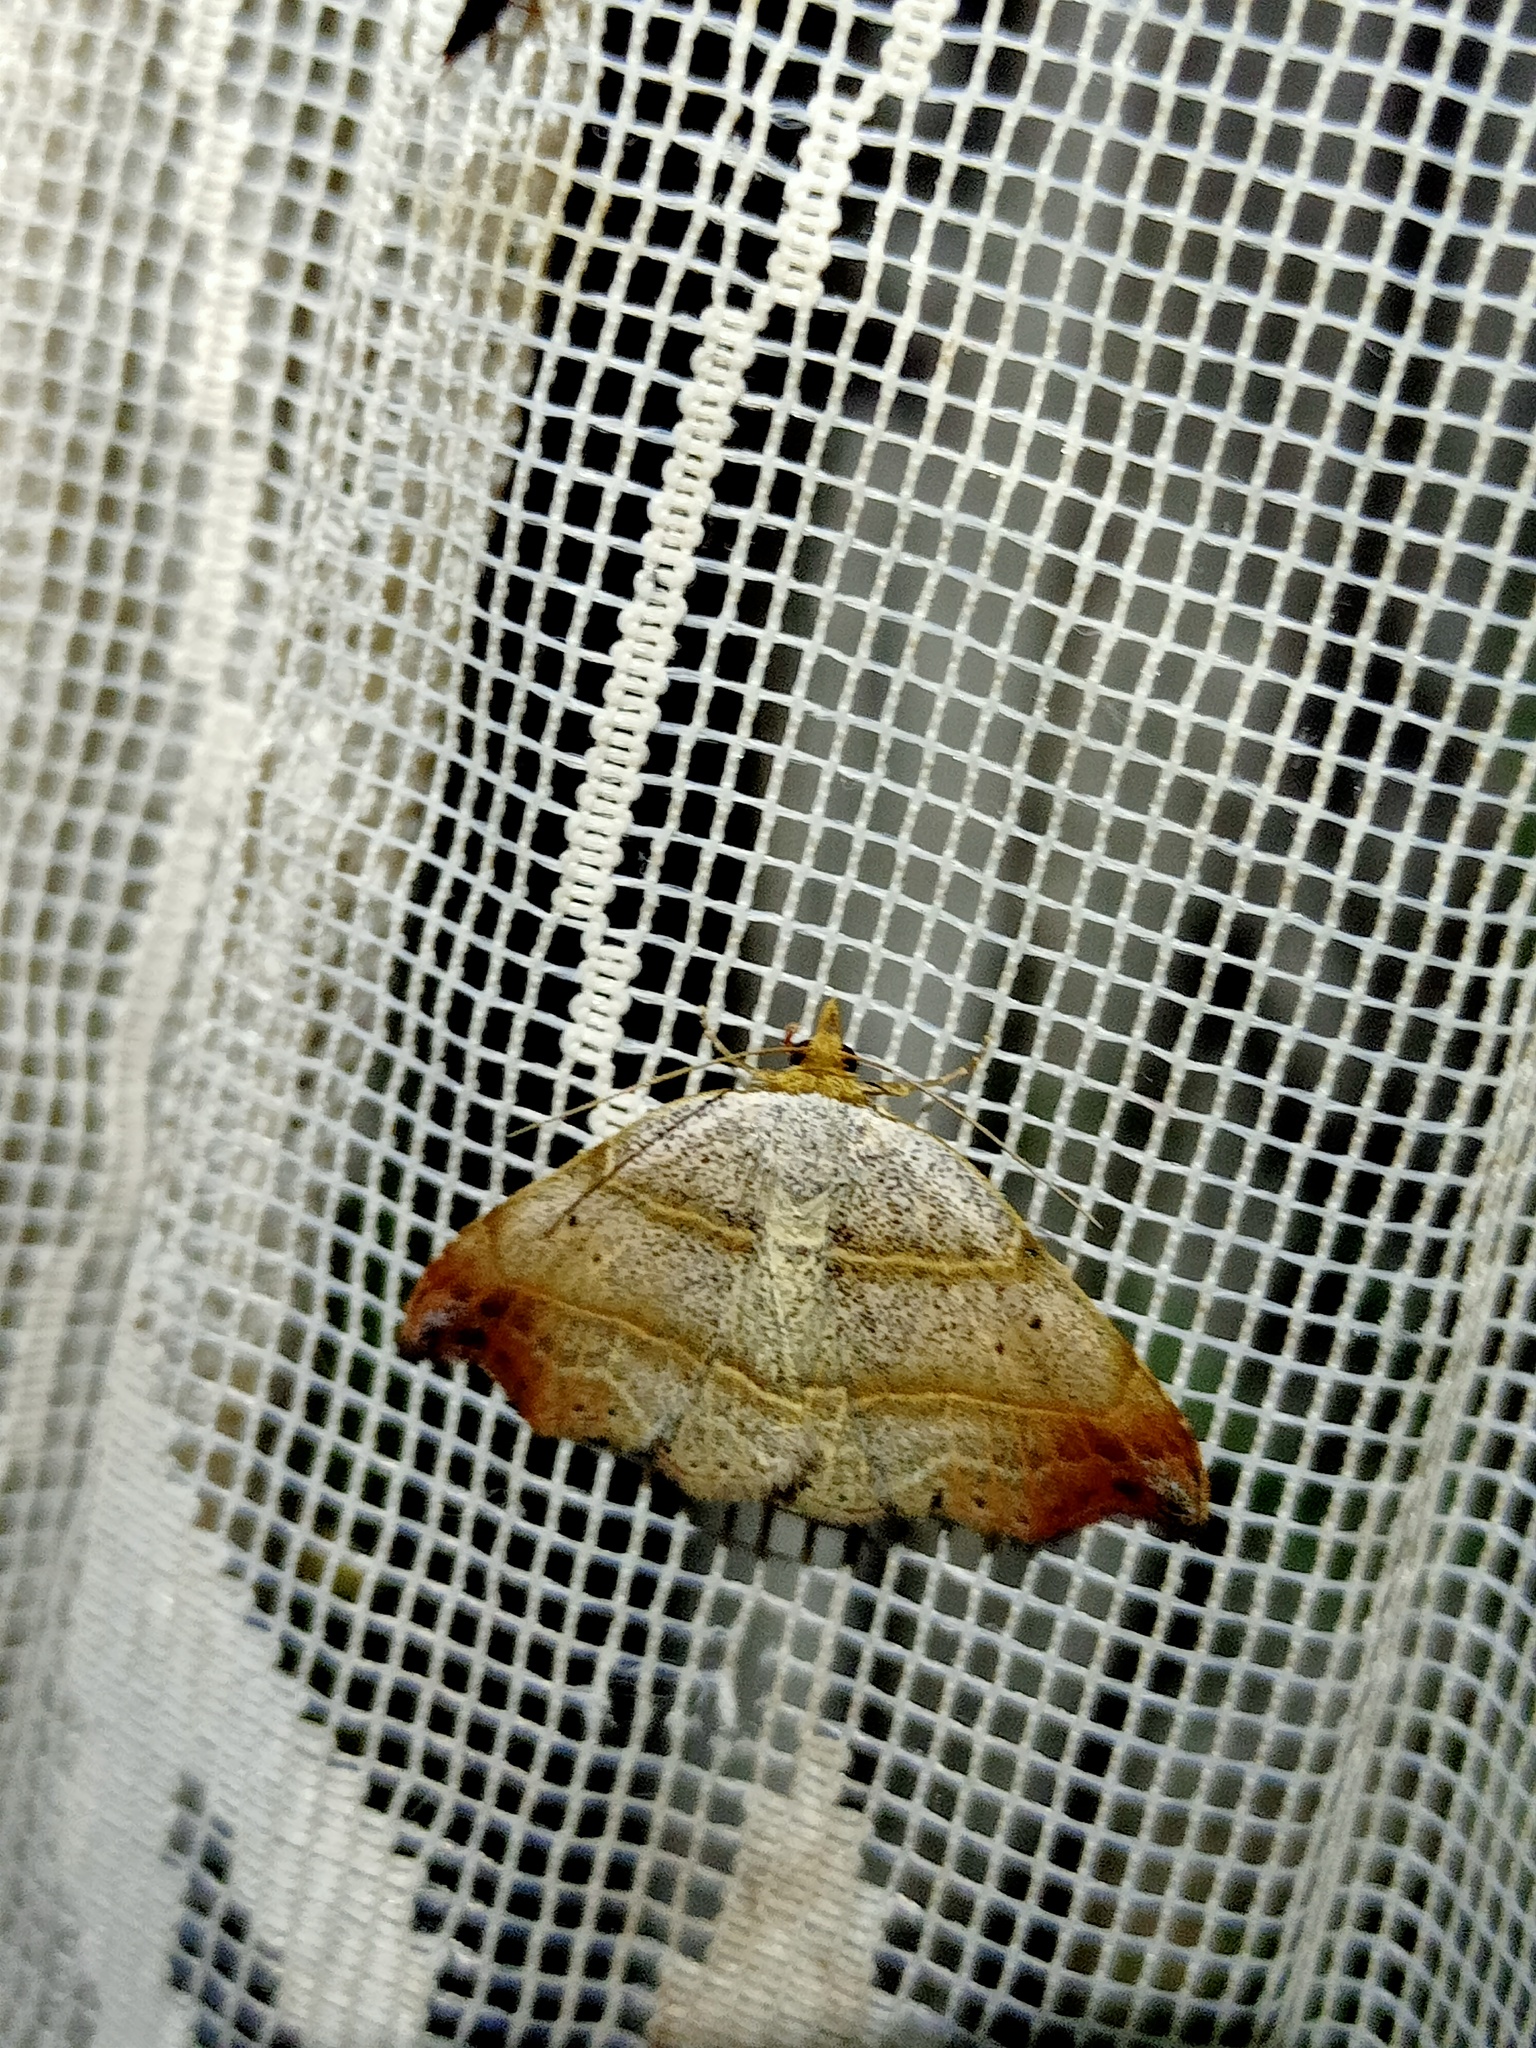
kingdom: Animalia
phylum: Arthropoda
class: Insecta
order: Lepidoptera
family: Erebidae
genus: Laspeyria
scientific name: Laspeyria flexula
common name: Beautiful hook-tip
